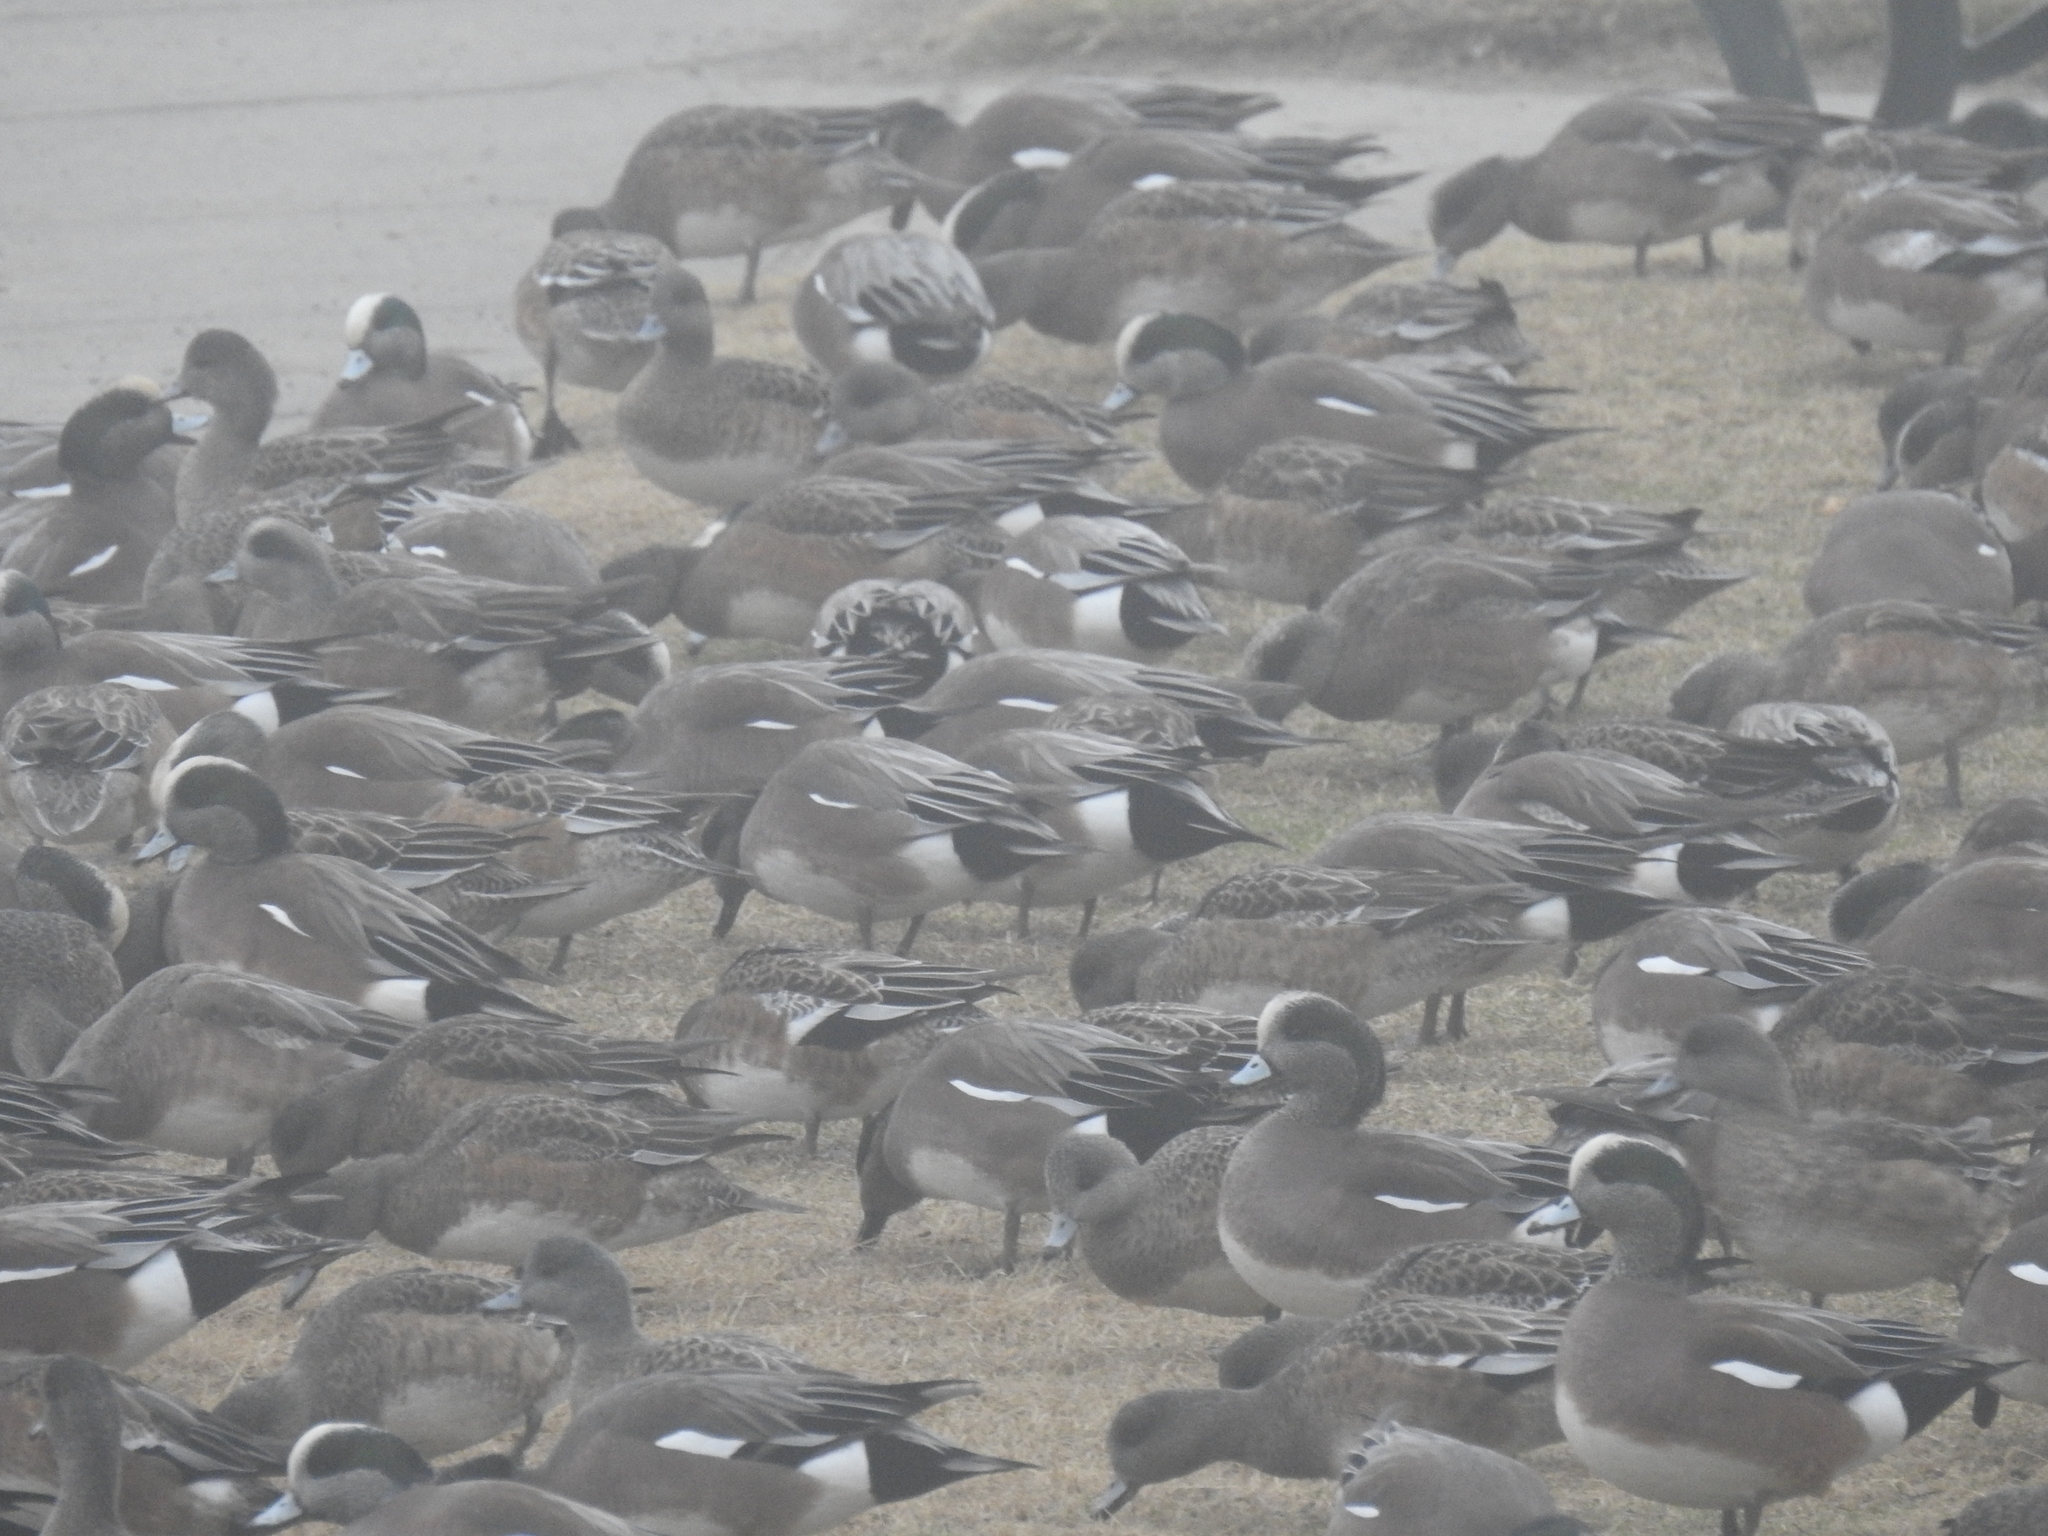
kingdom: Animalia
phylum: Chordata
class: Aves
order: Anseriformes
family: Anatidae
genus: Mareca
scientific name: Mareca americana
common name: American wigeon
